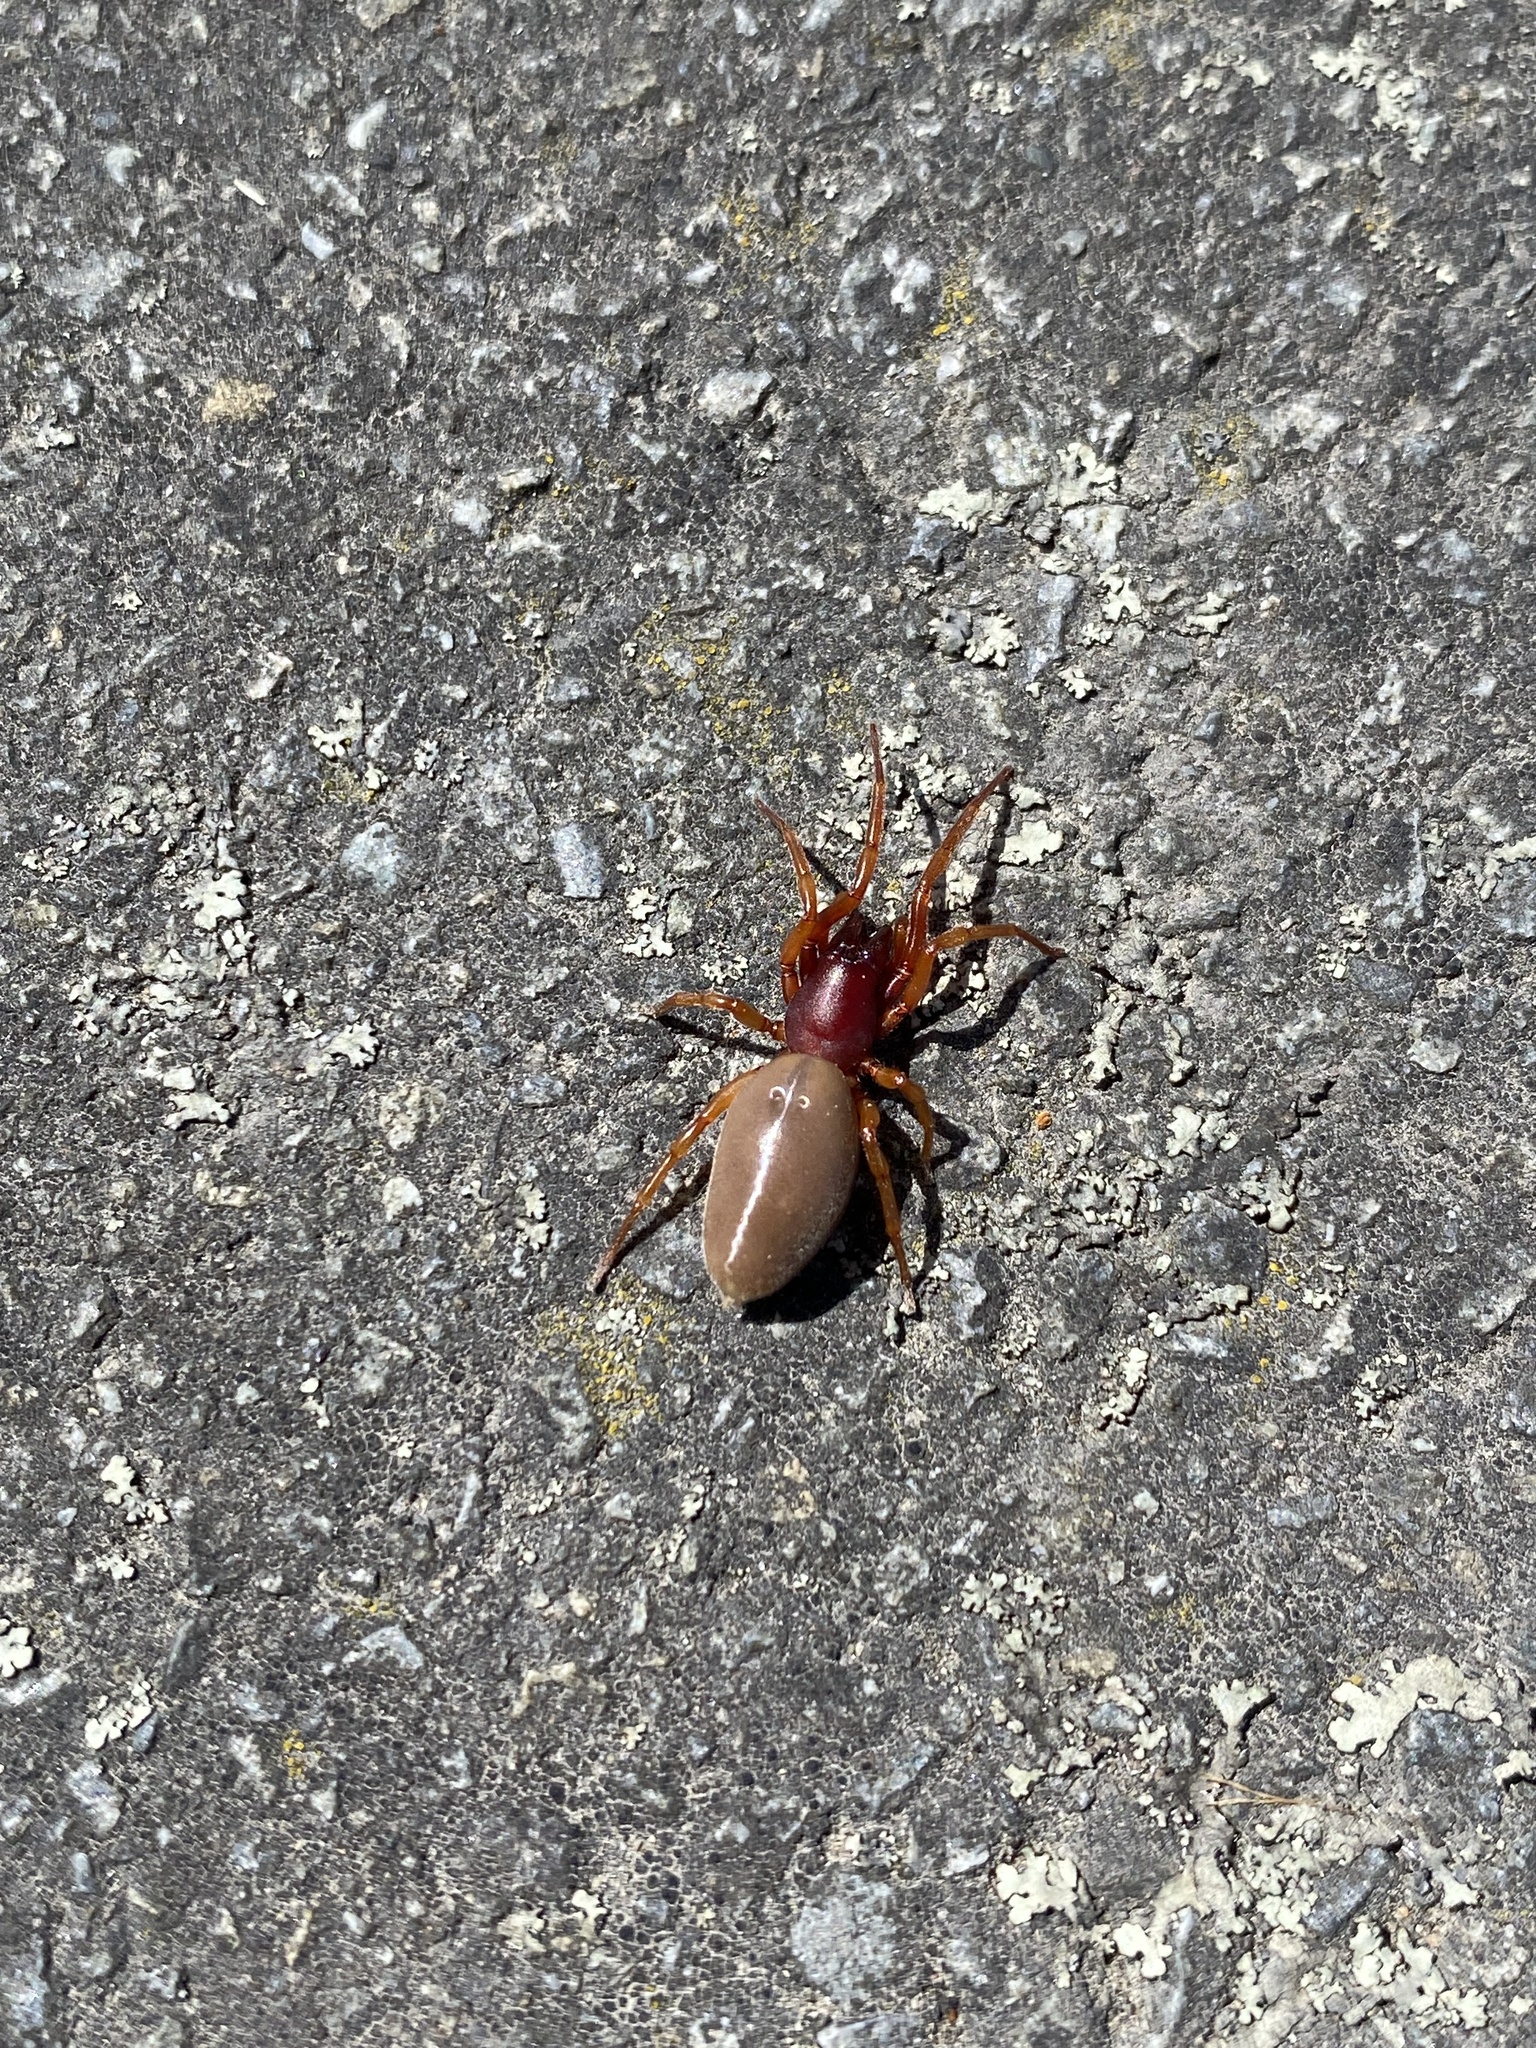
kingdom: Animalia
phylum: Arthropoda
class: Arachnida
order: Araneae
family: Dysderidae
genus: Dysdera
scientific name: Dysdera crocata
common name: Woodlouse spider
